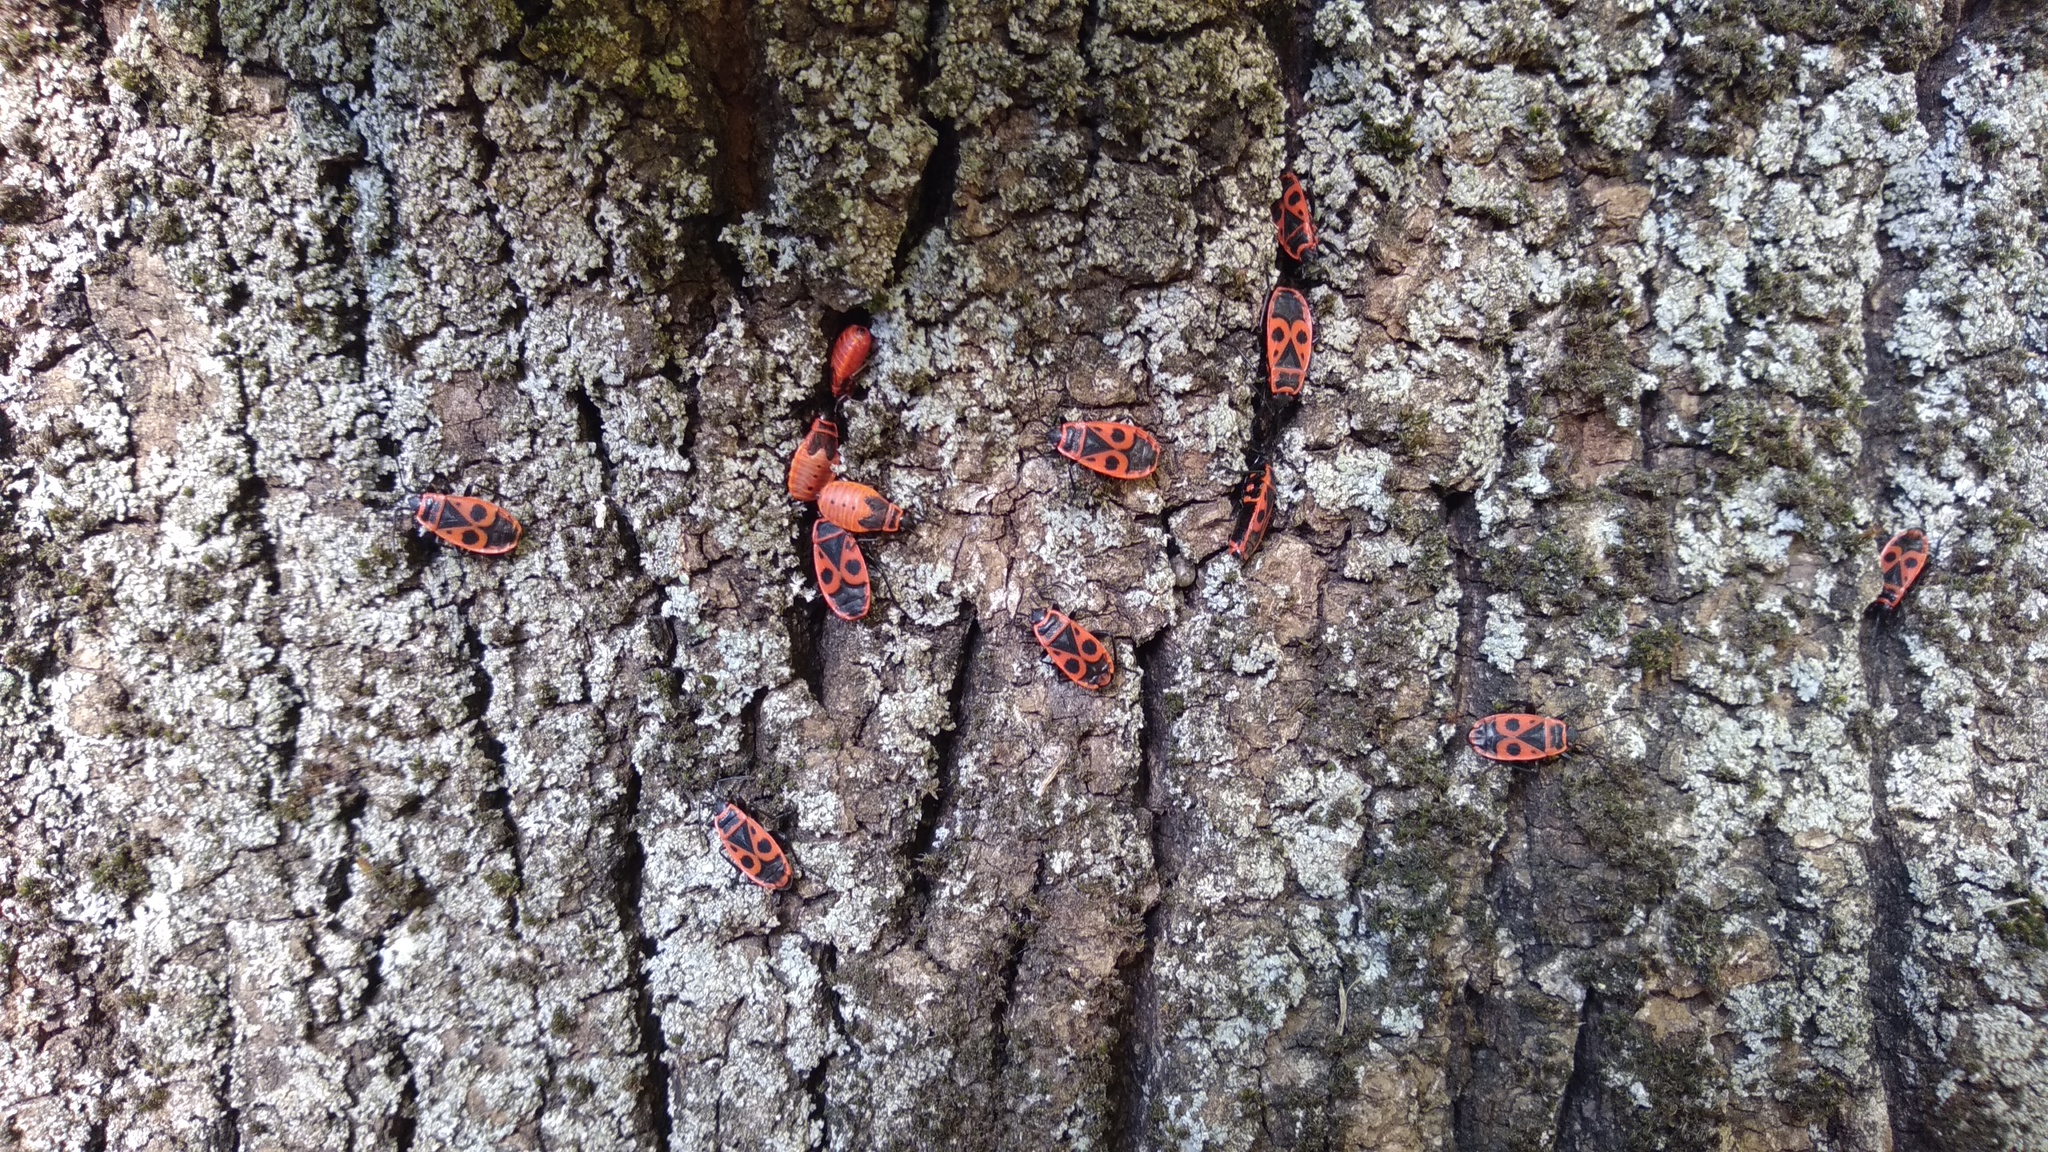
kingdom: Animalia
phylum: Arthropoda
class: Insecta
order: Hemiptera
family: Pyrrhocoridae
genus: Pyrrhocoris
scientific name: Pyrrhocoris apterus
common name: Firebug
